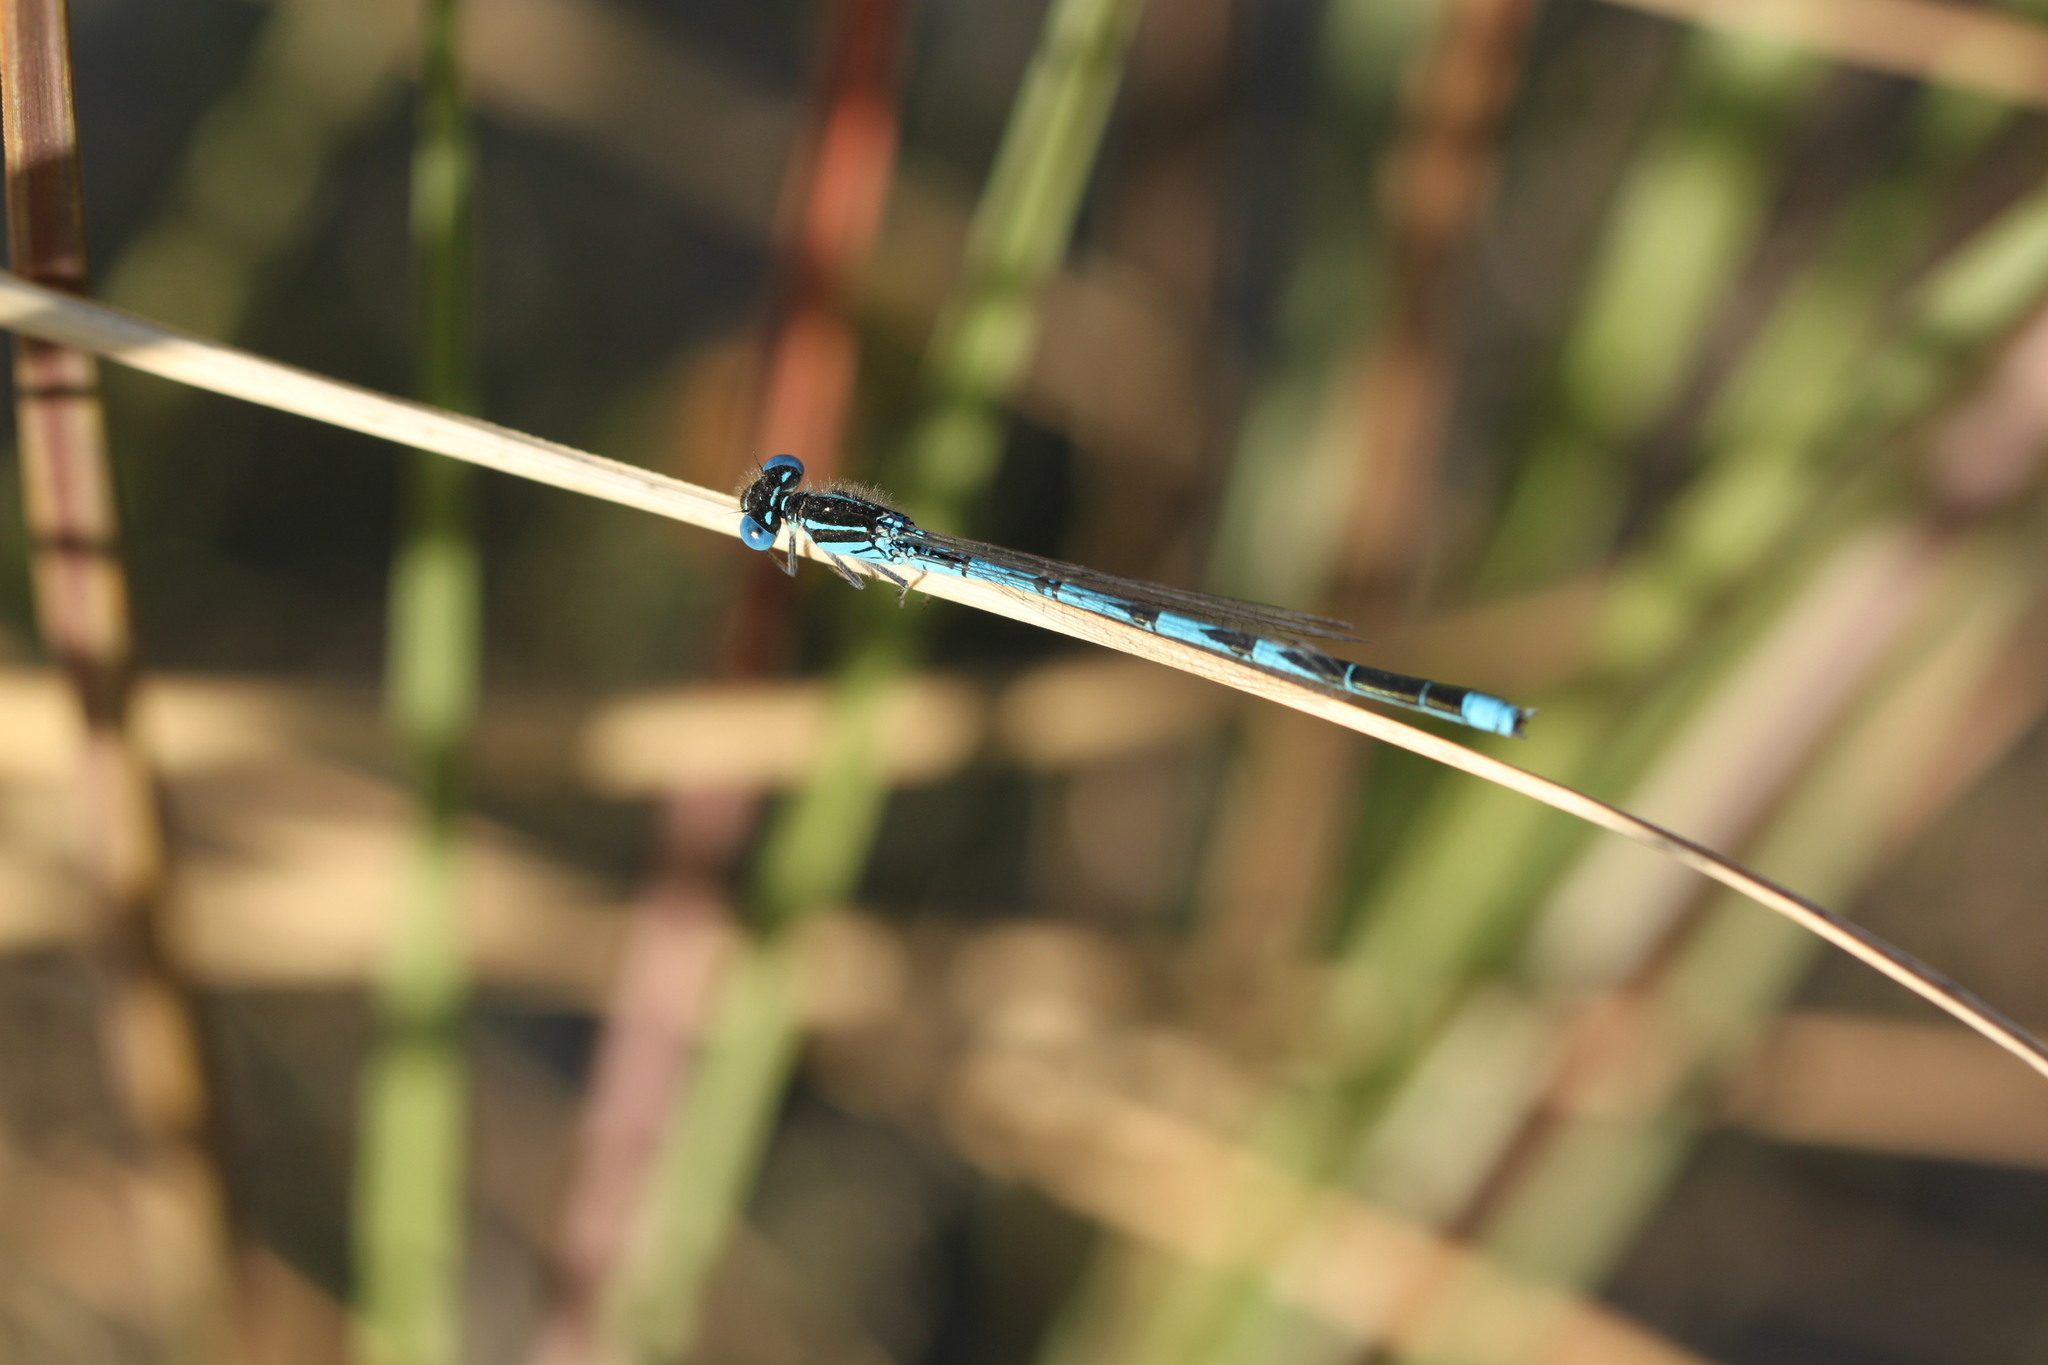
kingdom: Animalia
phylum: Arthropoda
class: Insecta
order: Odonata
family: Coenagrionidae
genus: Erythromma
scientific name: Erythromma lindenii
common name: Blue-eye
